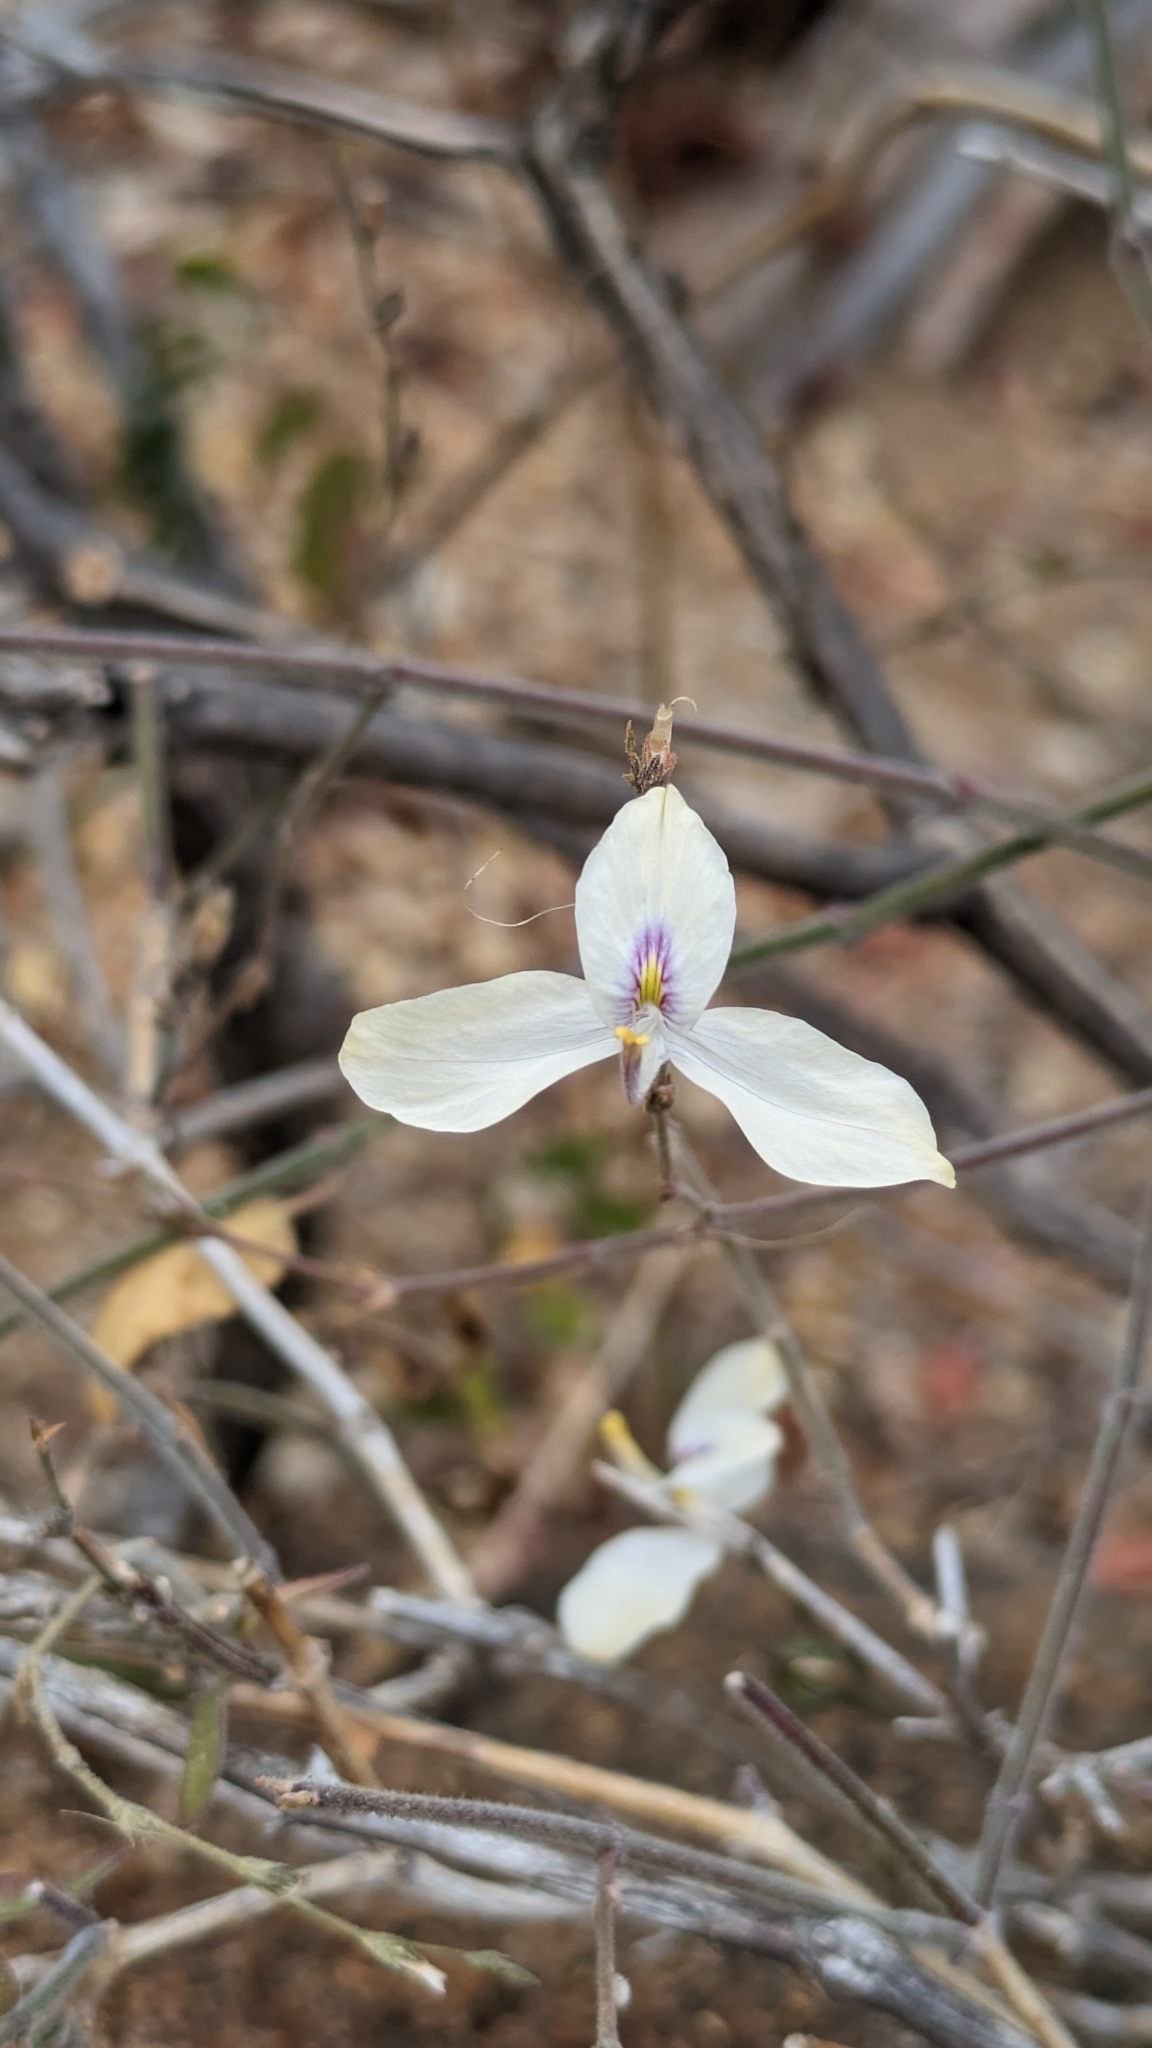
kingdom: Plantae
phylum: Tracheophyta
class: Magnoliopsida
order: Lamiales
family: Acanthaceae
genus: Carlowrightia
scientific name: Carlowrightia arizonica
